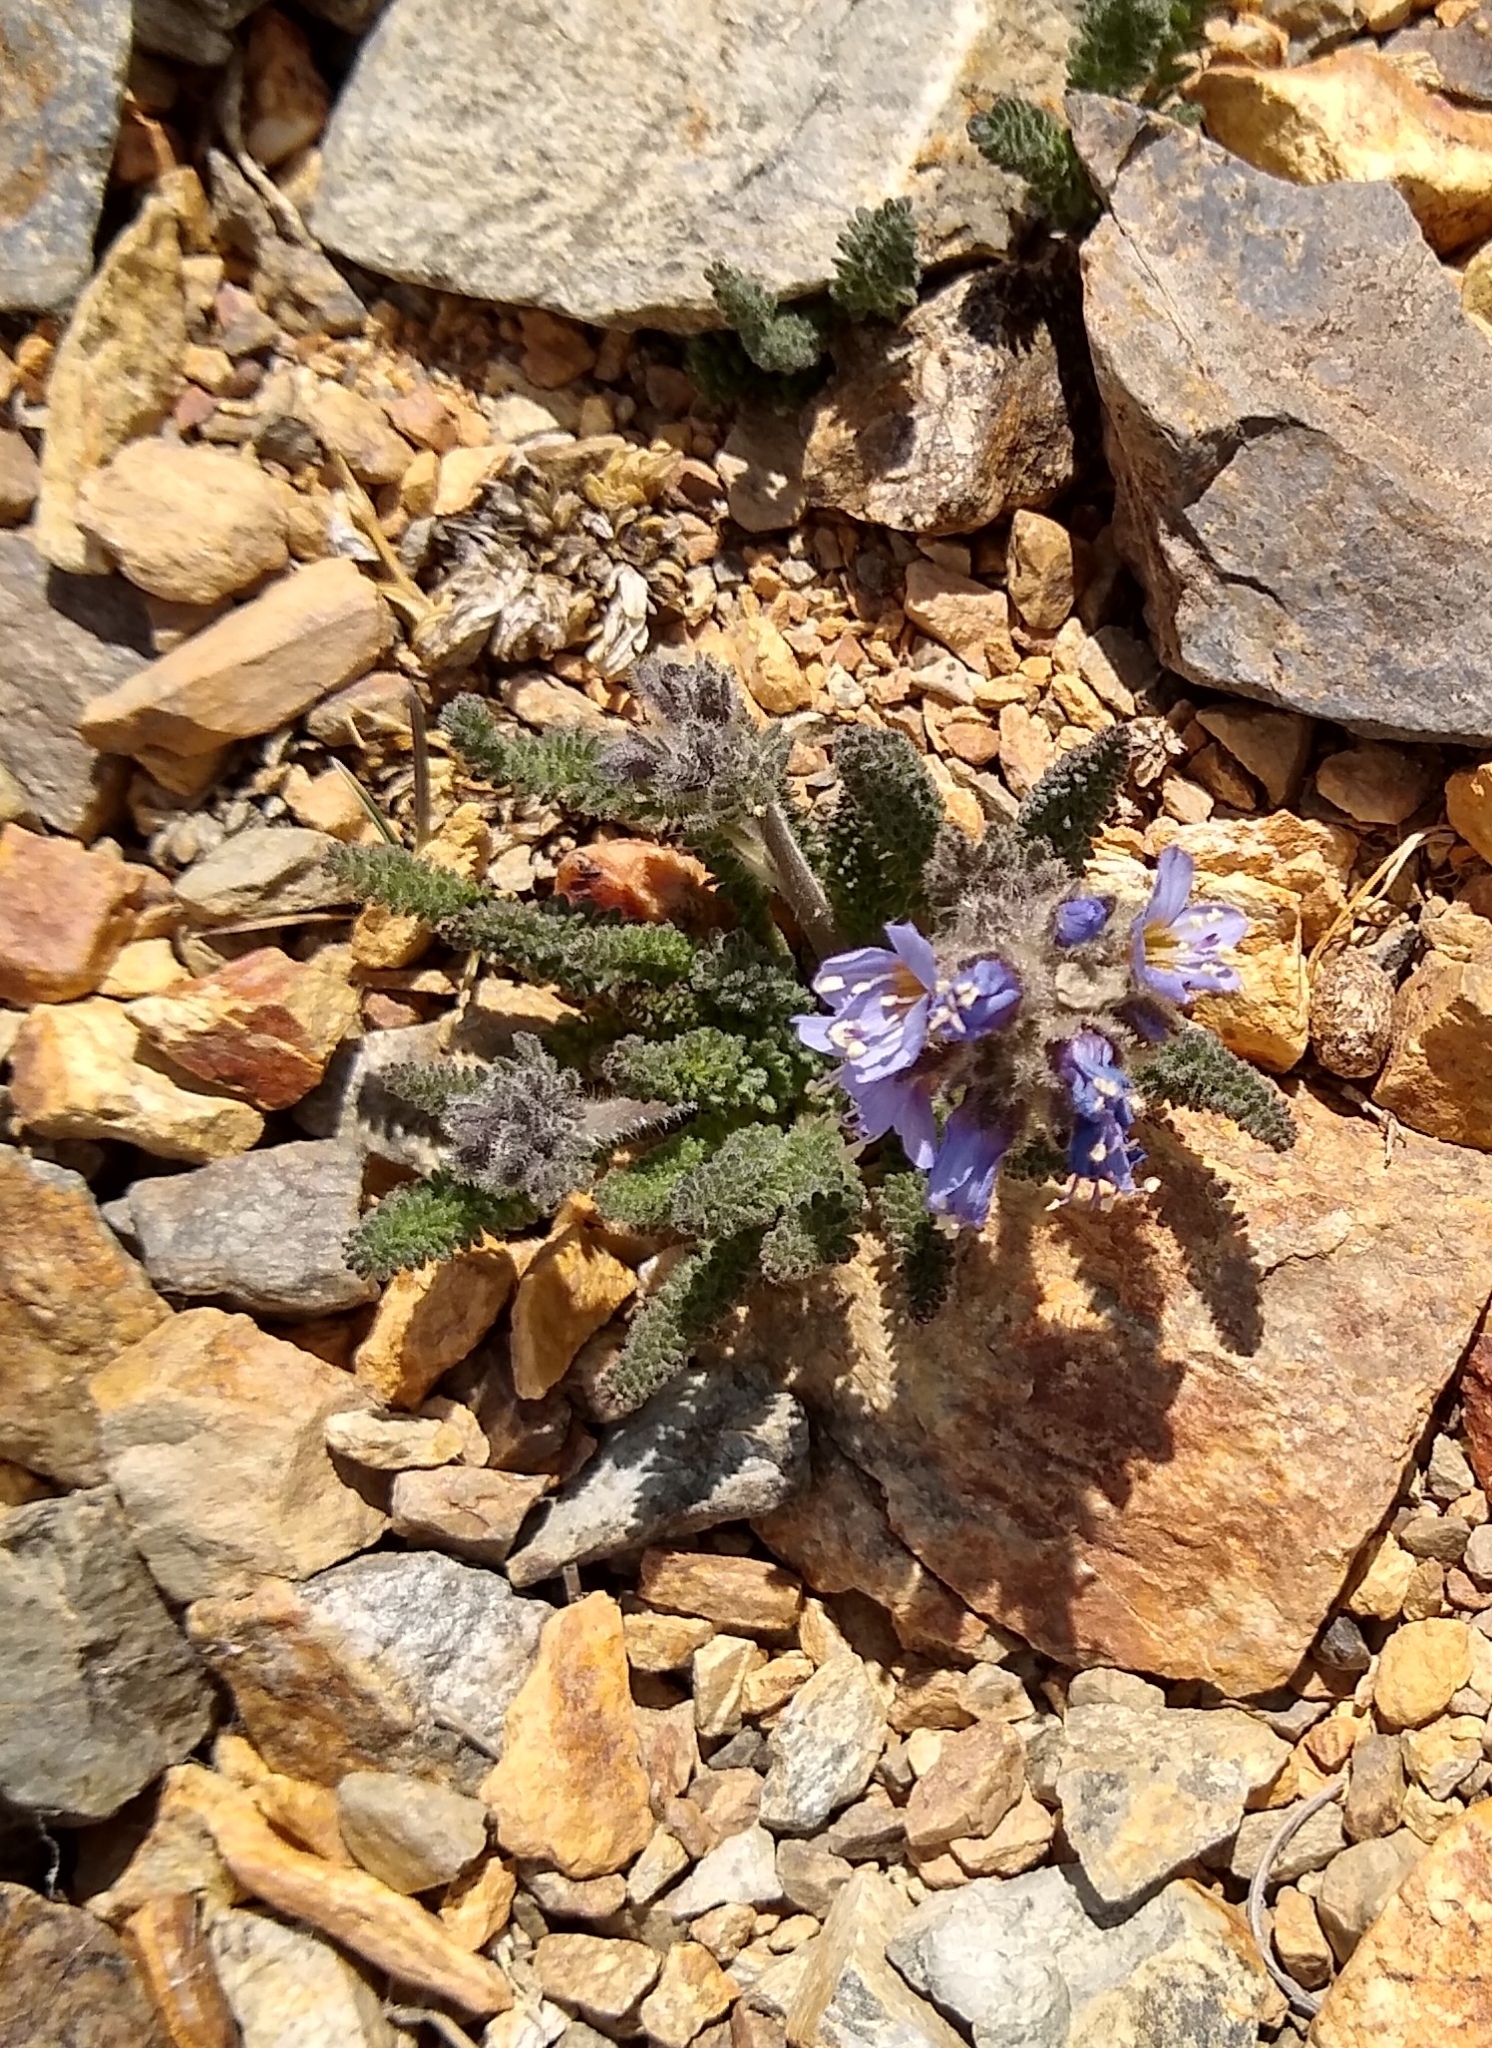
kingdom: Plantae
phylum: Tracheophyta
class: Magnoliopsida
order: Ericales
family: Polemoniaceae
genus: Polemonium
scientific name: Polemonium chartaceum
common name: Mason's sky-pilot
